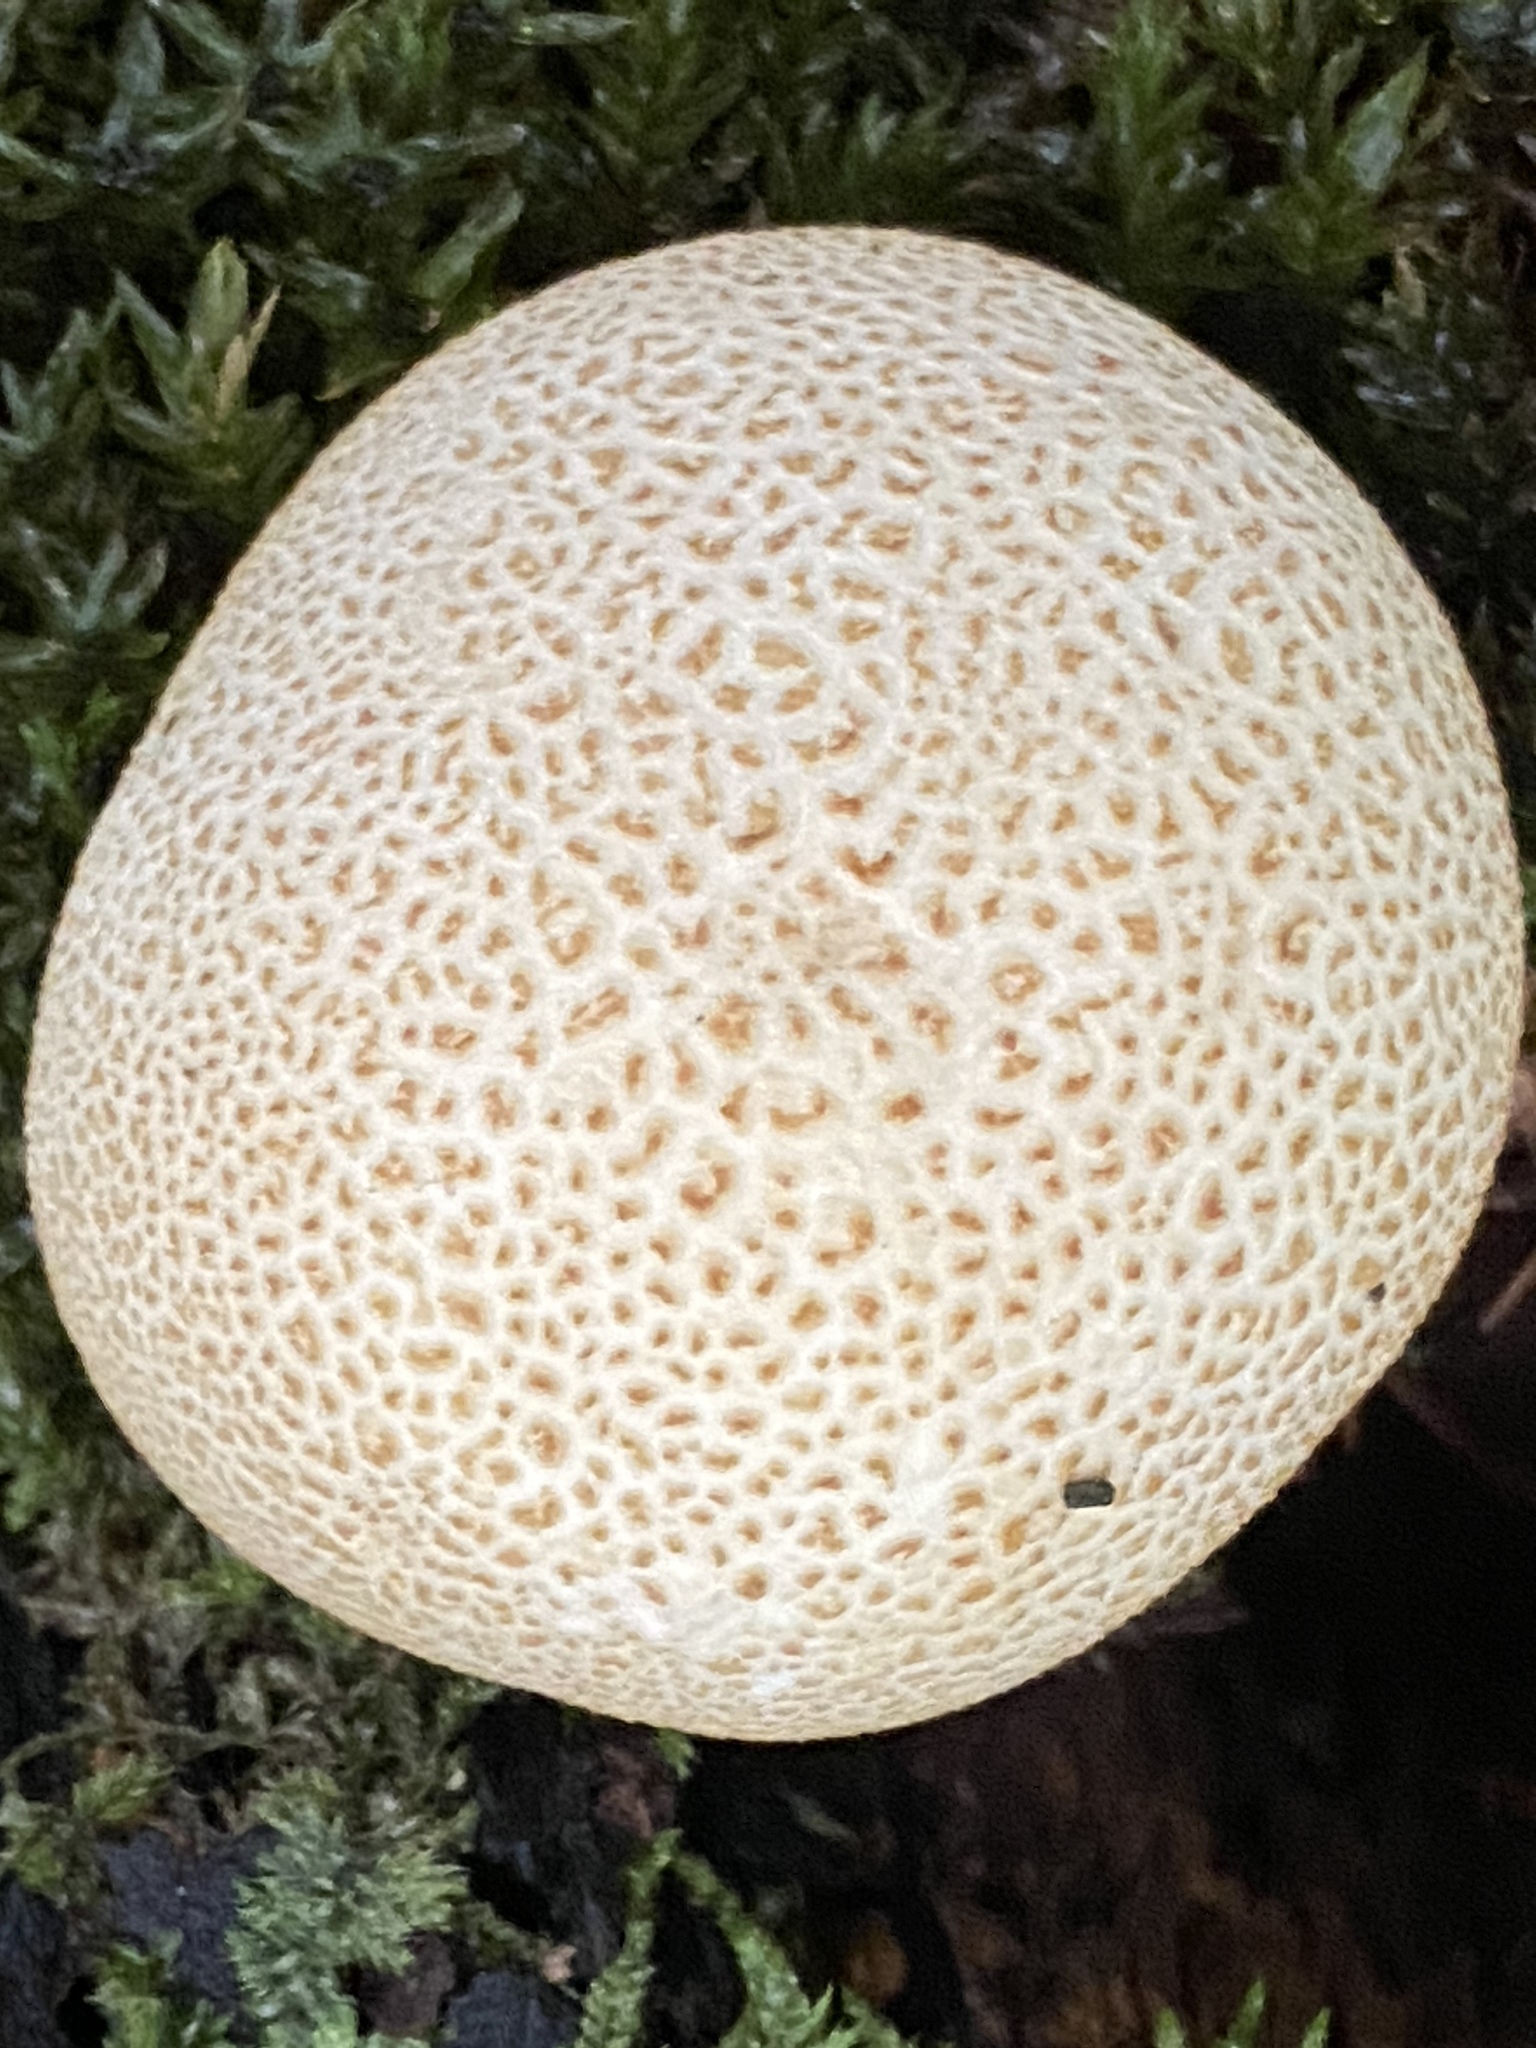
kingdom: Fungi
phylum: Basidiomycota
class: Agaricomycetes
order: Boletales
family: Sclerodermataceae
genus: Scleroderma
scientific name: Scleroderma citrinum
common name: Common earthball
